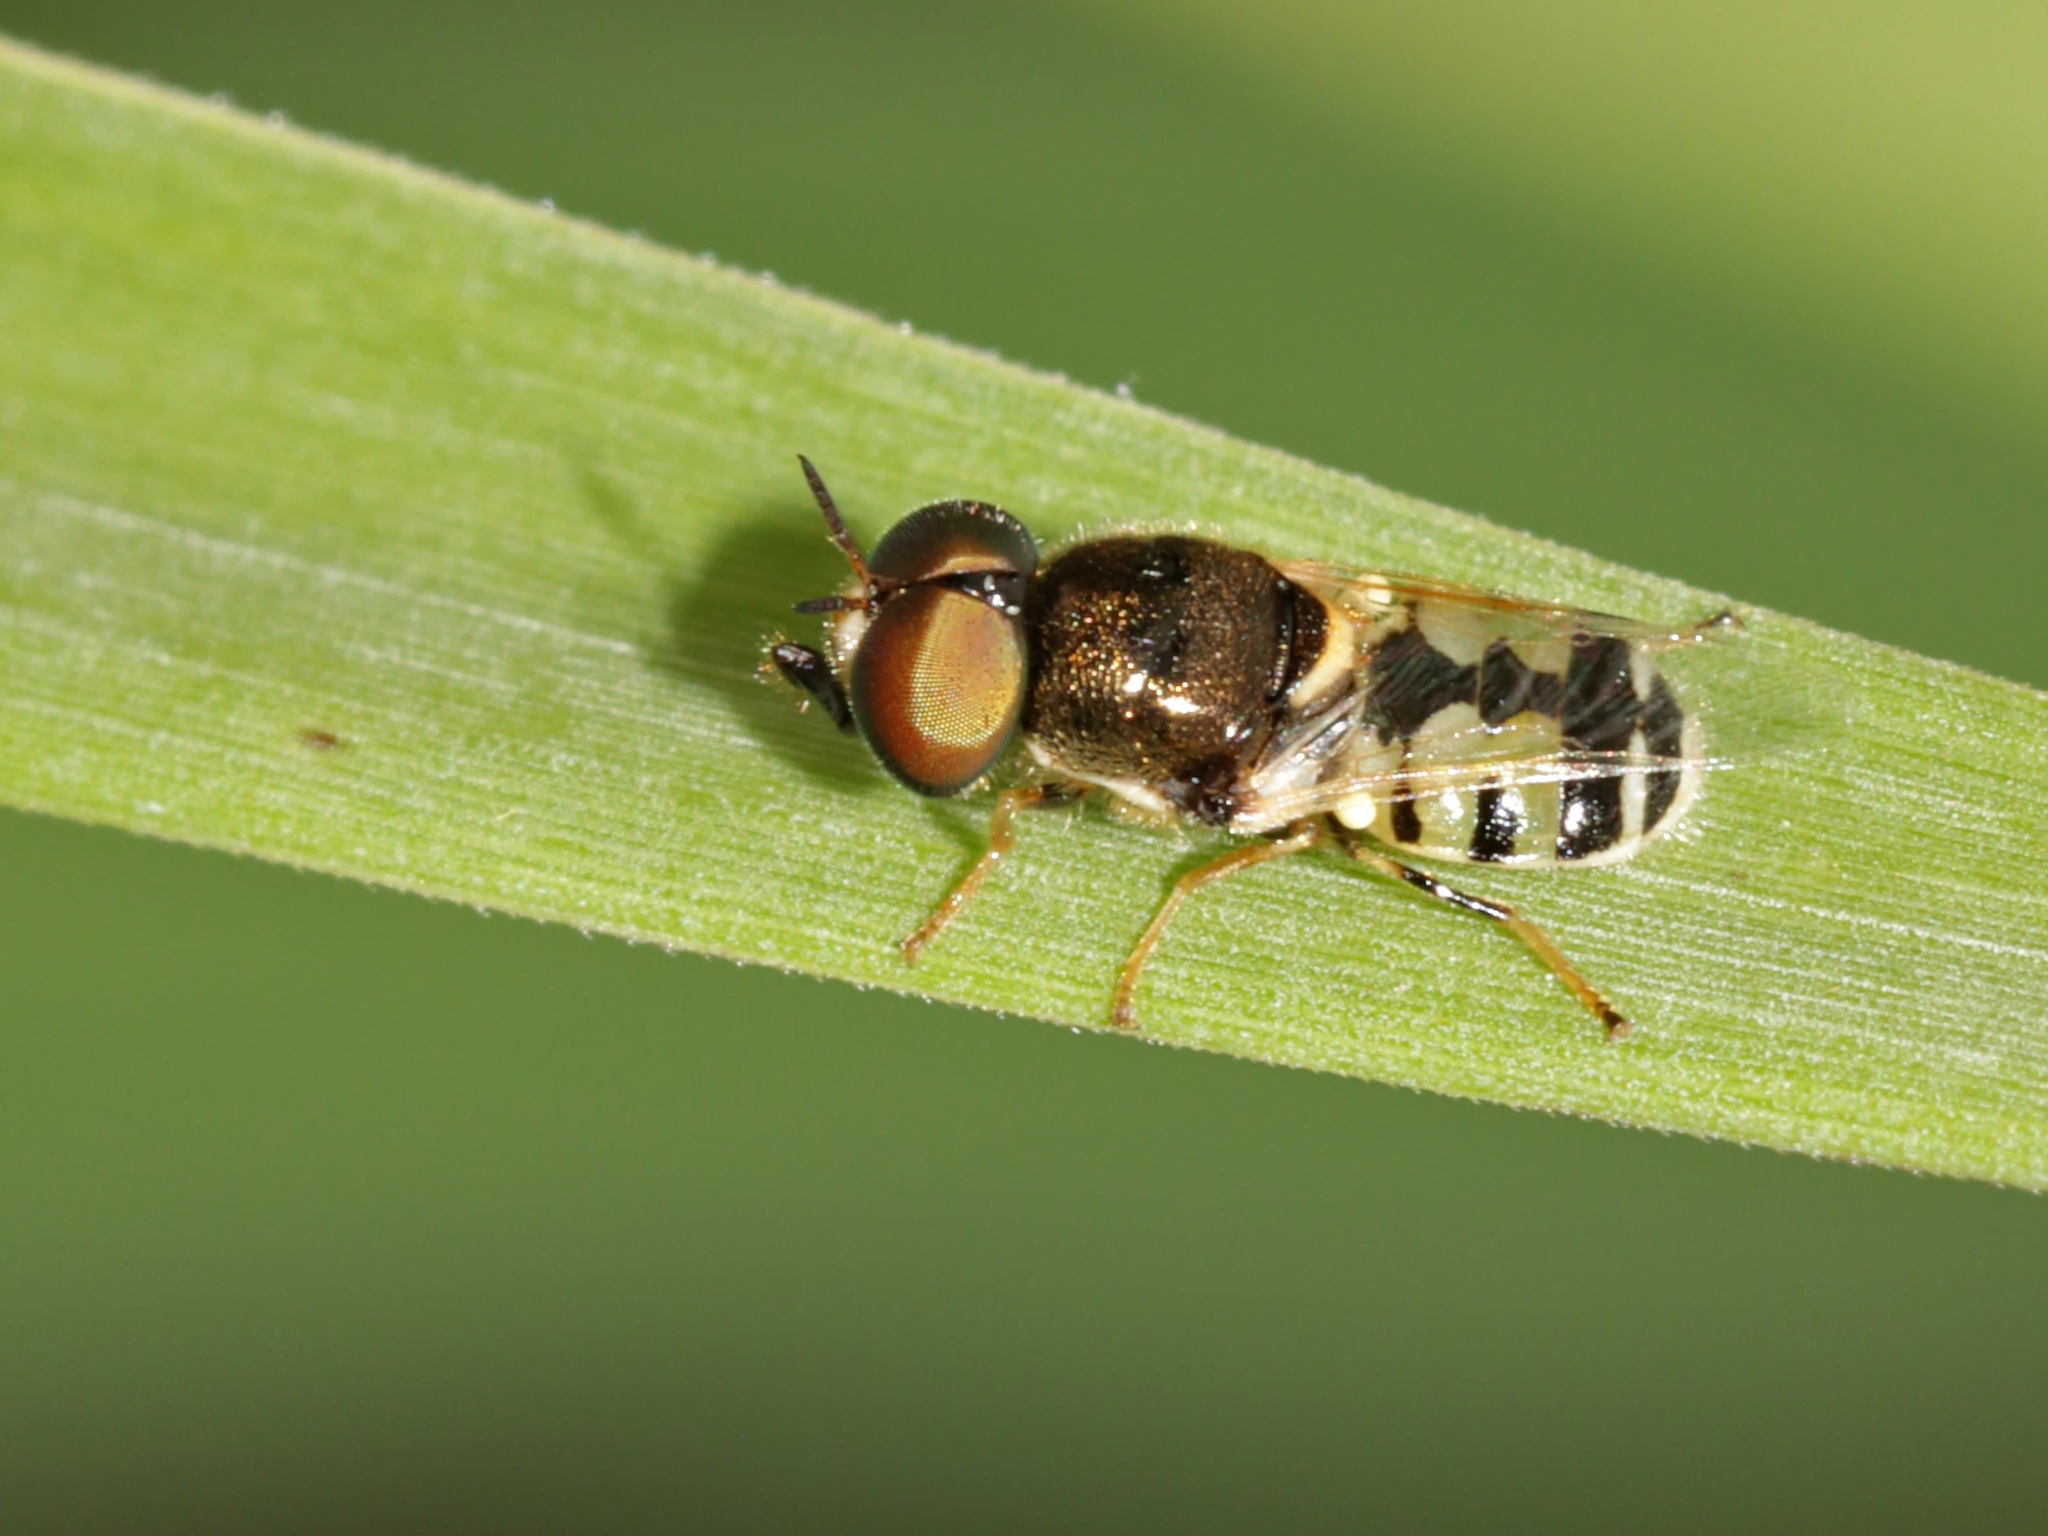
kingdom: Animalia
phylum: Arthropoda
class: Insecta
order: Diptera
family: Stratiomyidae
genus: Oplodontha
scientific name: Oplodontha facinigra
